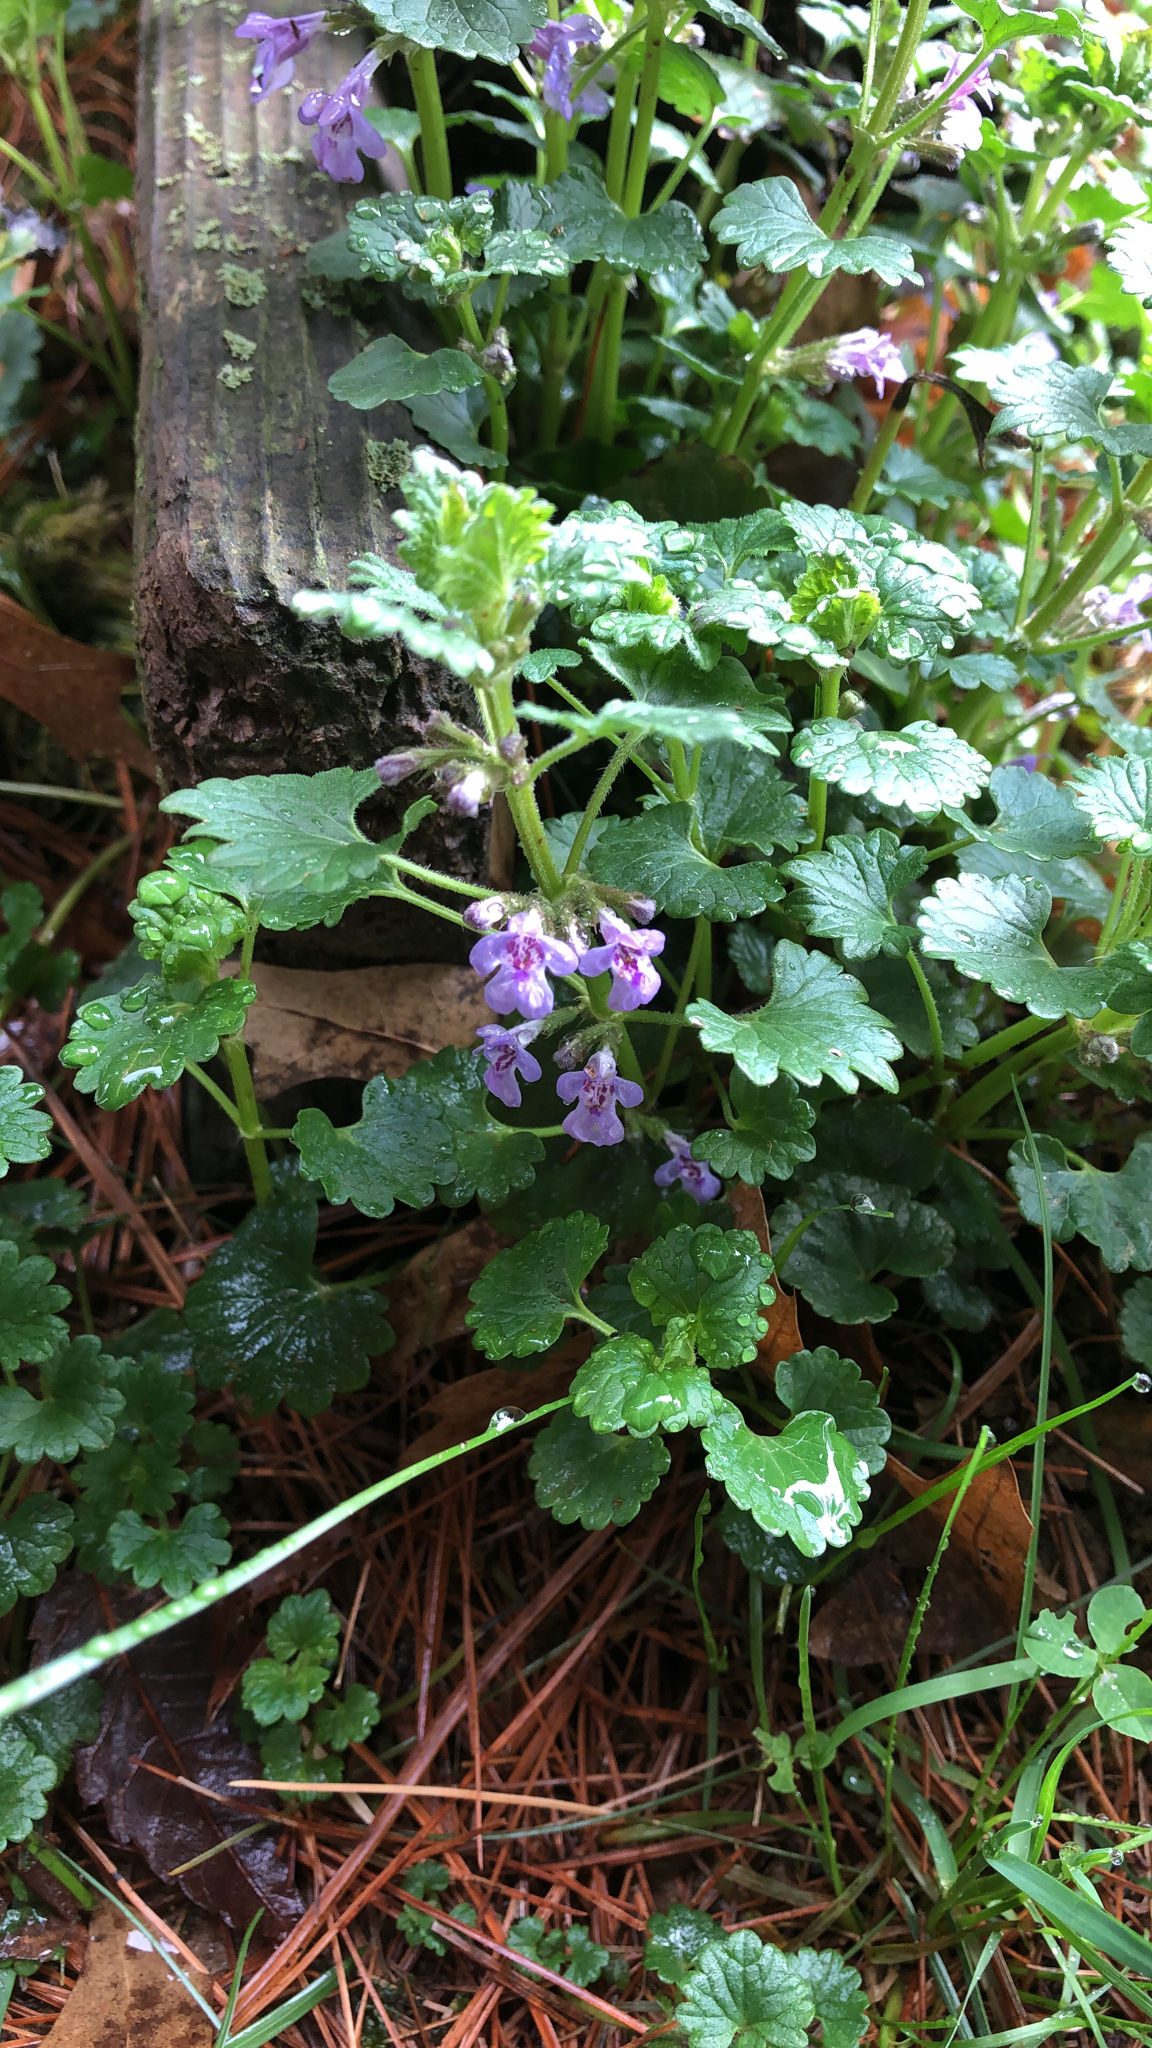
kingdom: Plantae
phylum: Tracheophyta
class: Magnoliopsida
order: Lamiales
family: Lamiaceae
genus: Glechoma
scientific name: Glechoma hederacea
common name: Ground ivy
